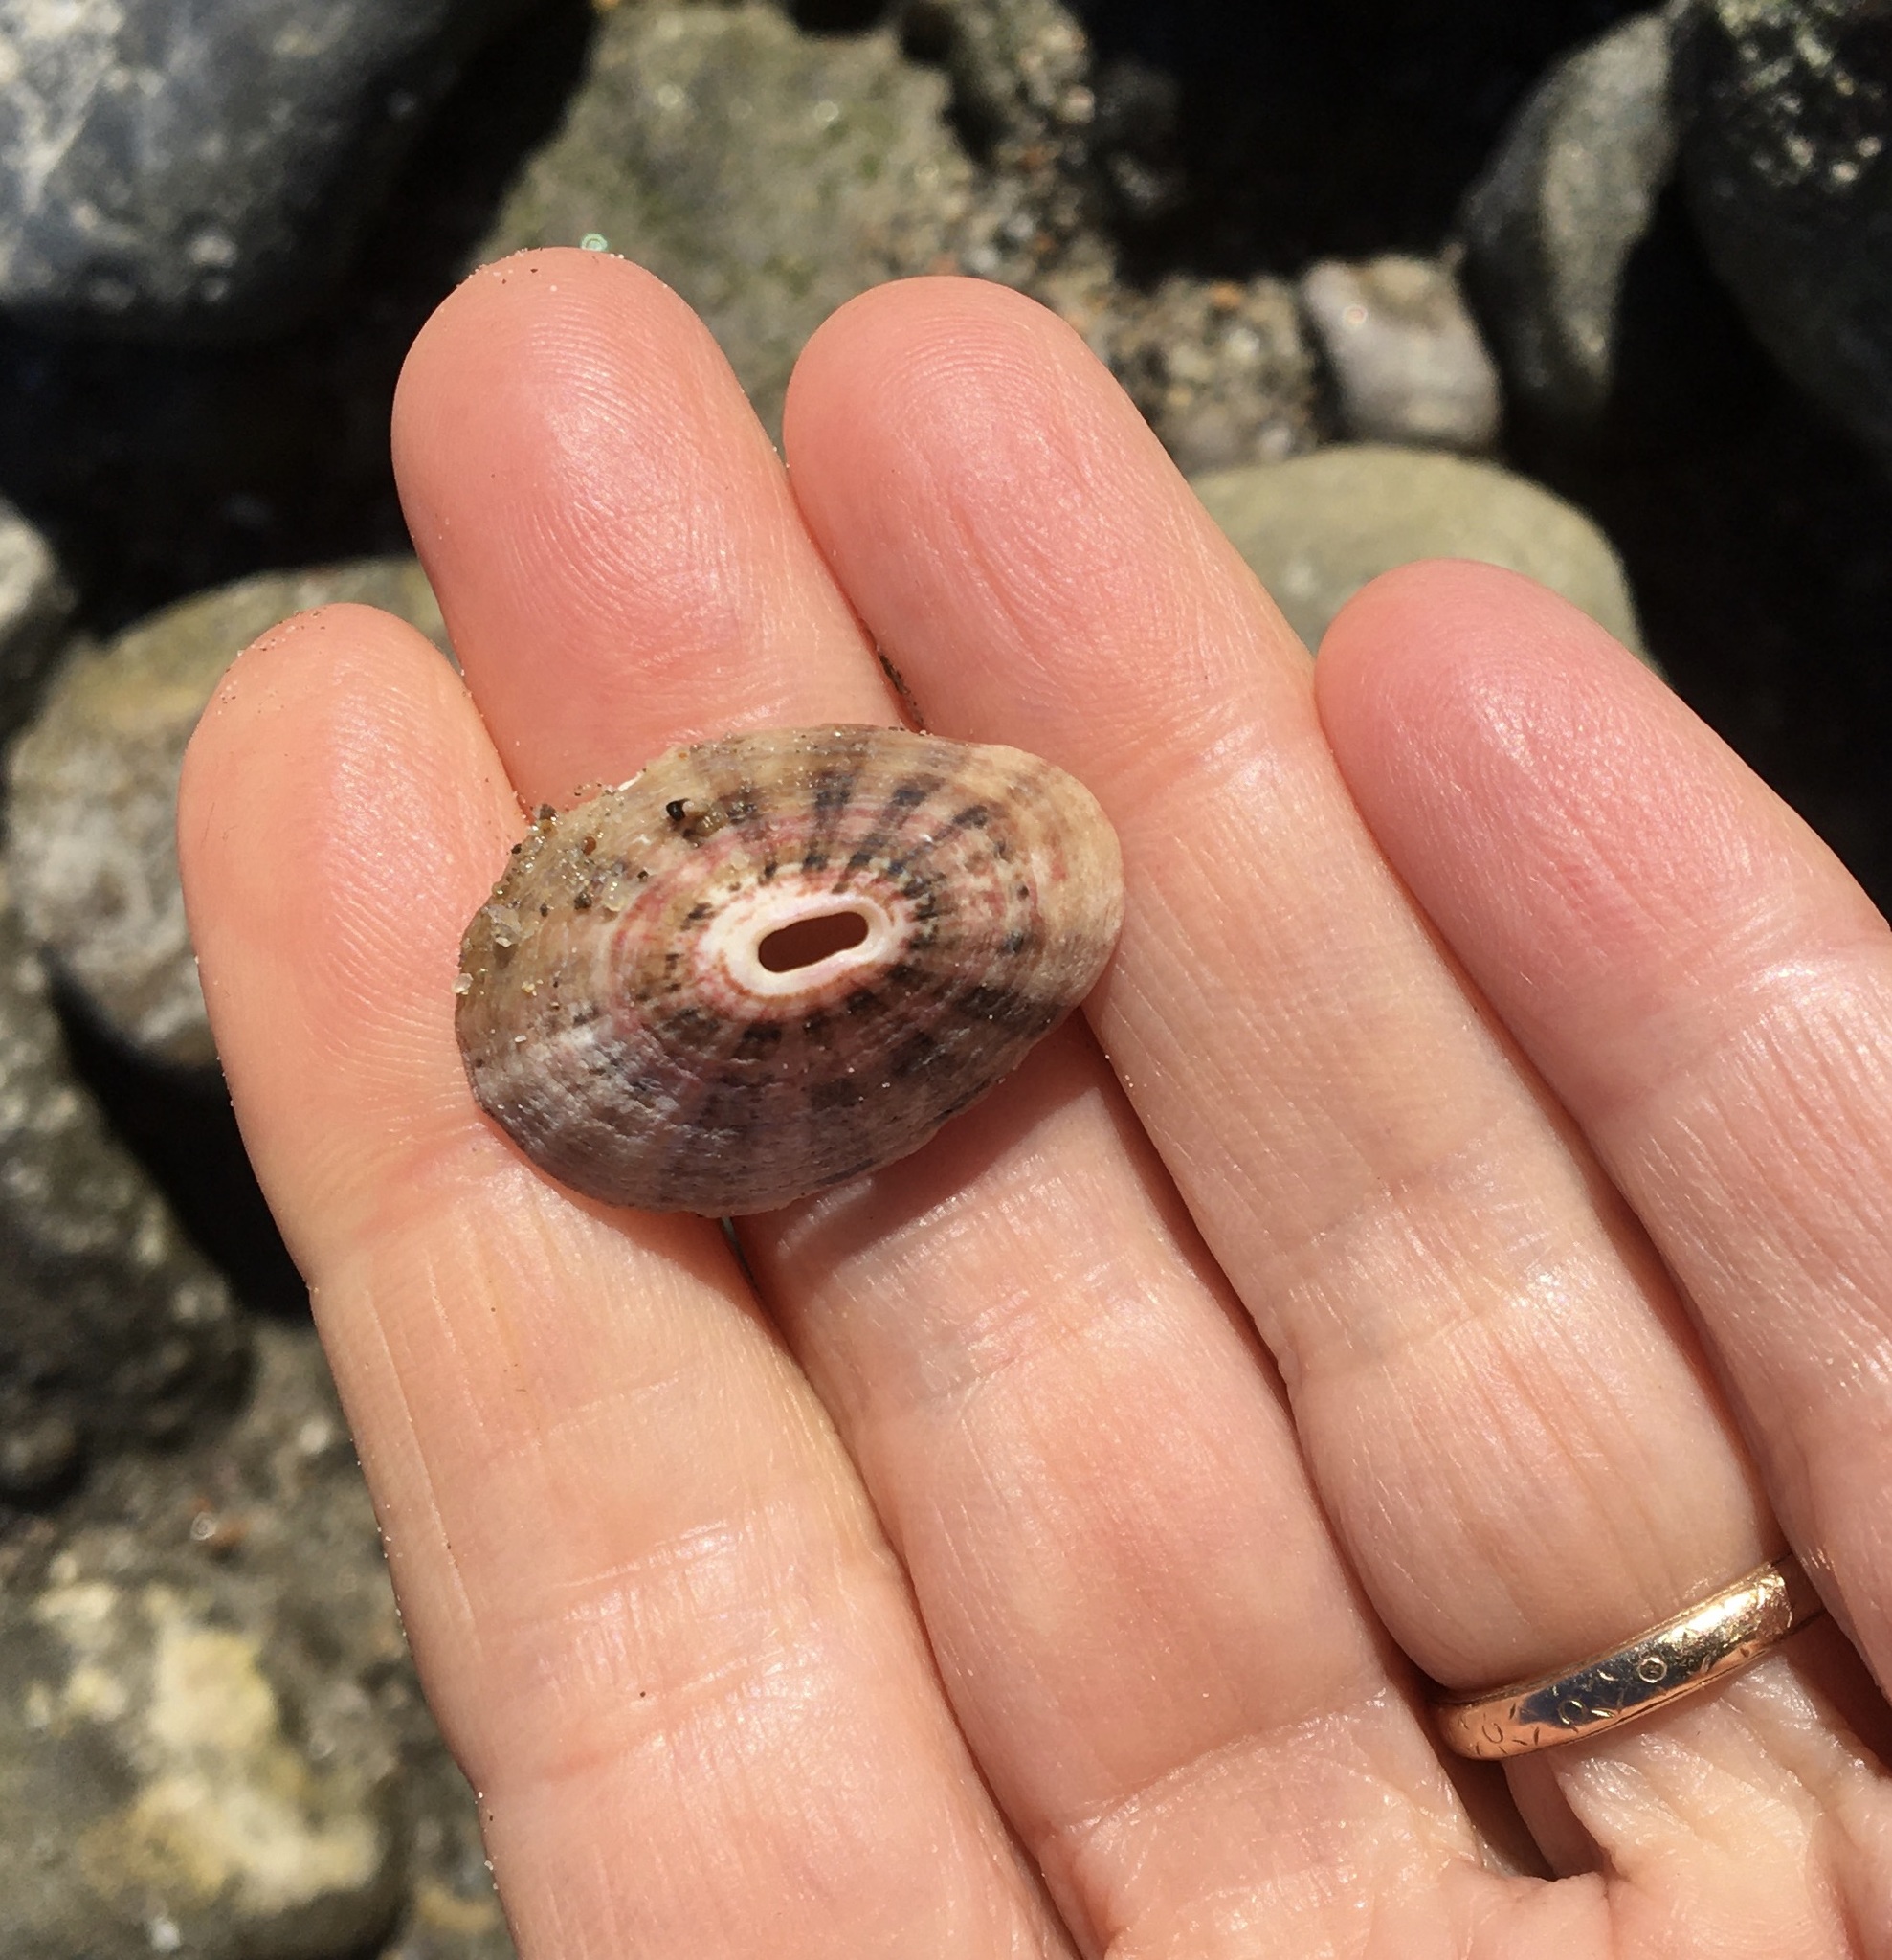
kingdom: Animalia
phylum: Mollusca
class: Gastropoda
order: Lepetellida
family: Fissurellidae
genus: Fissurella
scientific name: Fissurella volcano
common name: Volcano keyhole limpet
